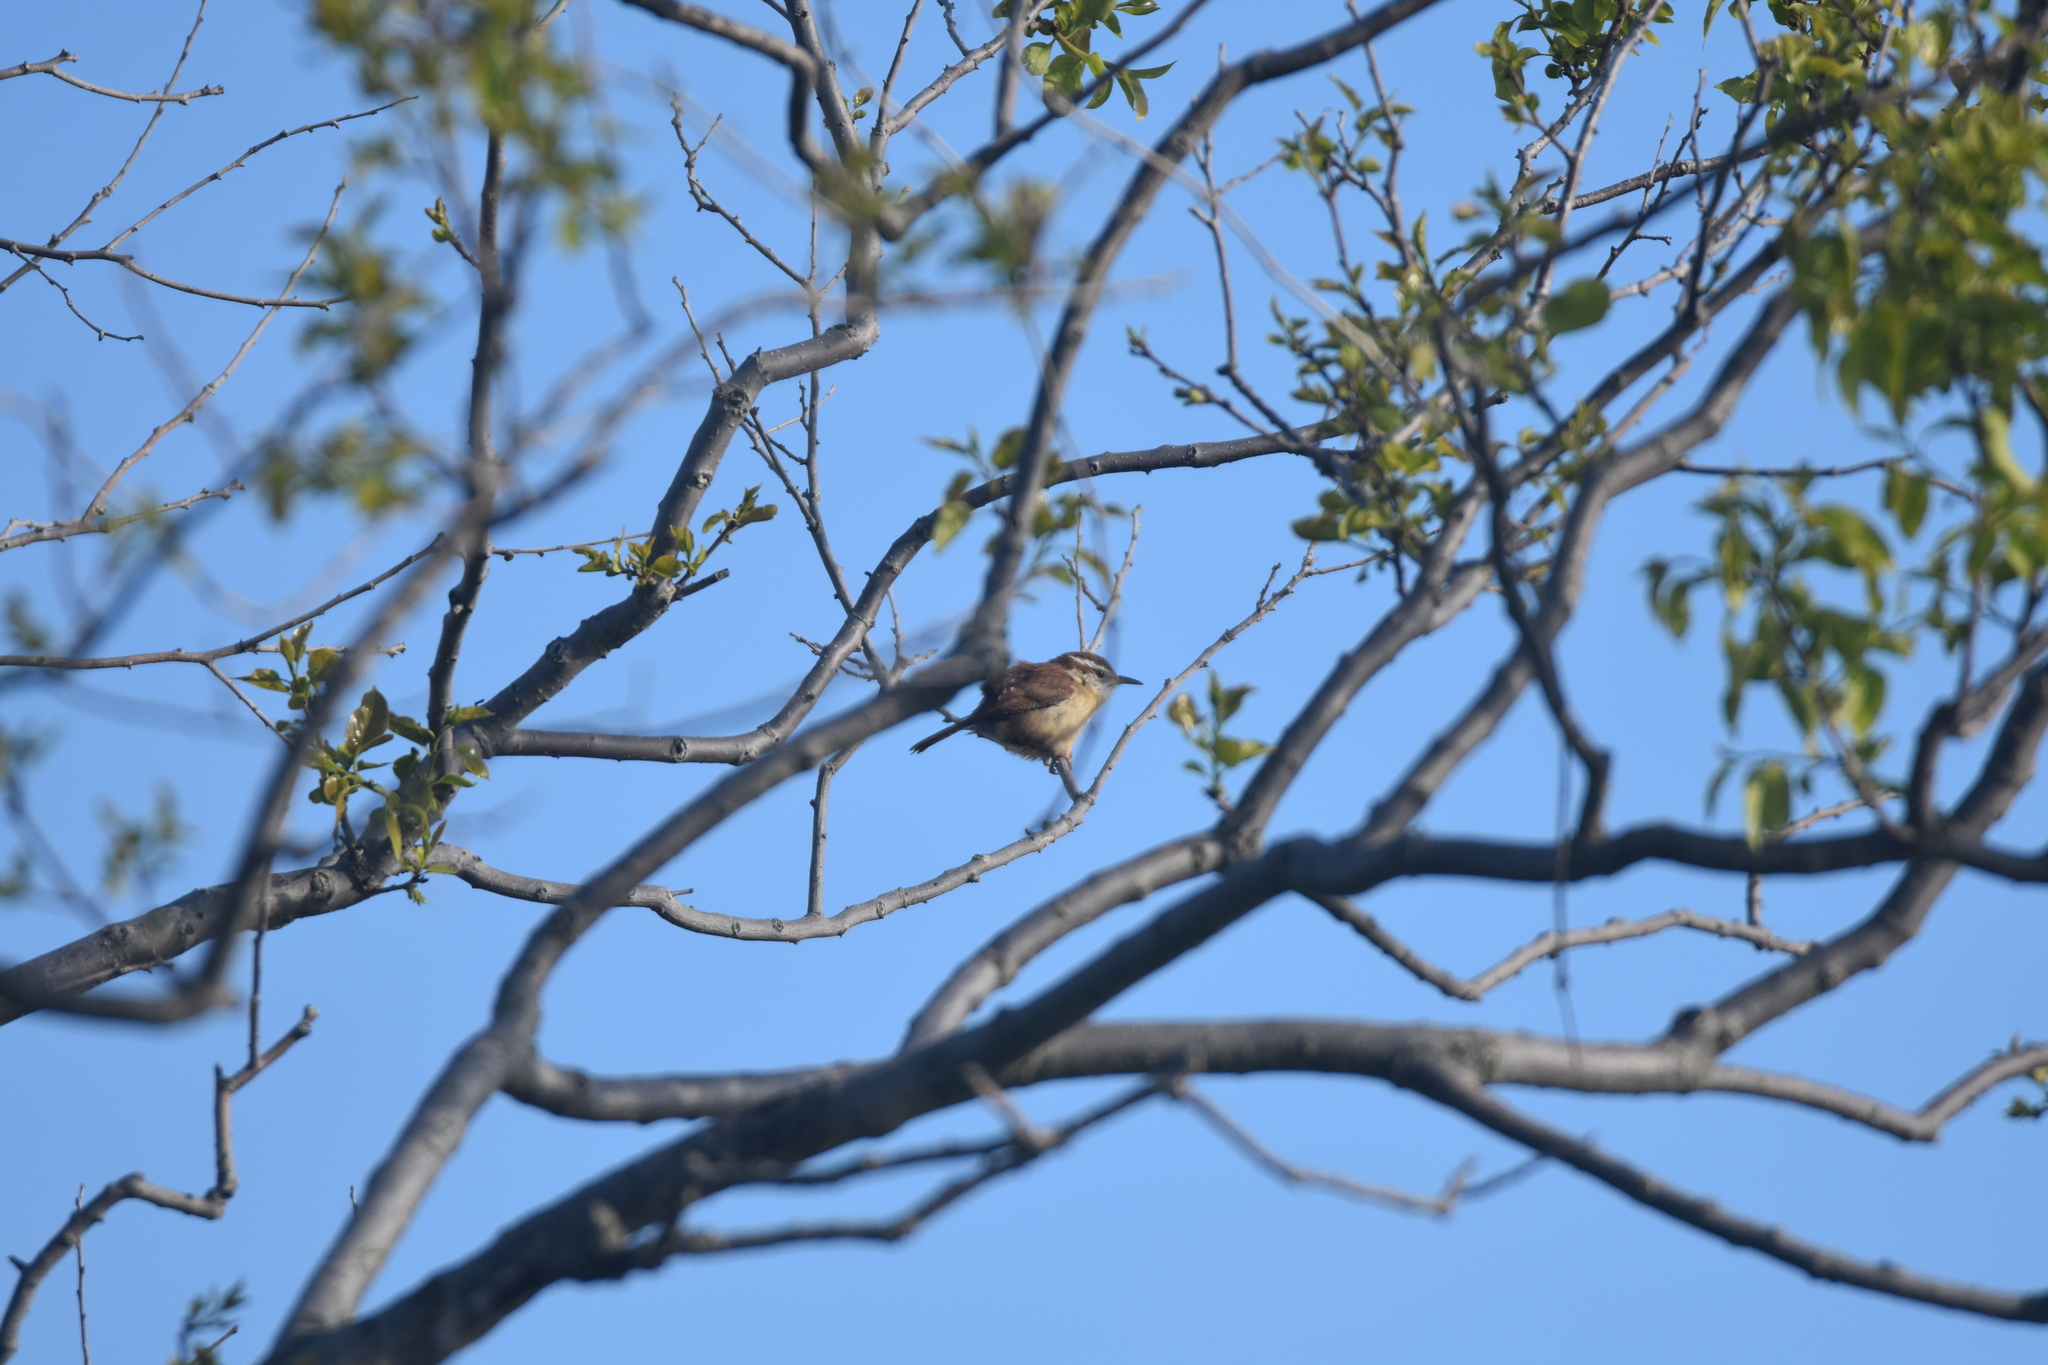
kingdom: Animalia
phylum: Chordata
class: Aves
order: Passeriformes
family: Troglodytidae
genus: Thryothorus
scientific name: Thryothorus ludovicianus
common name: Carolina wren
